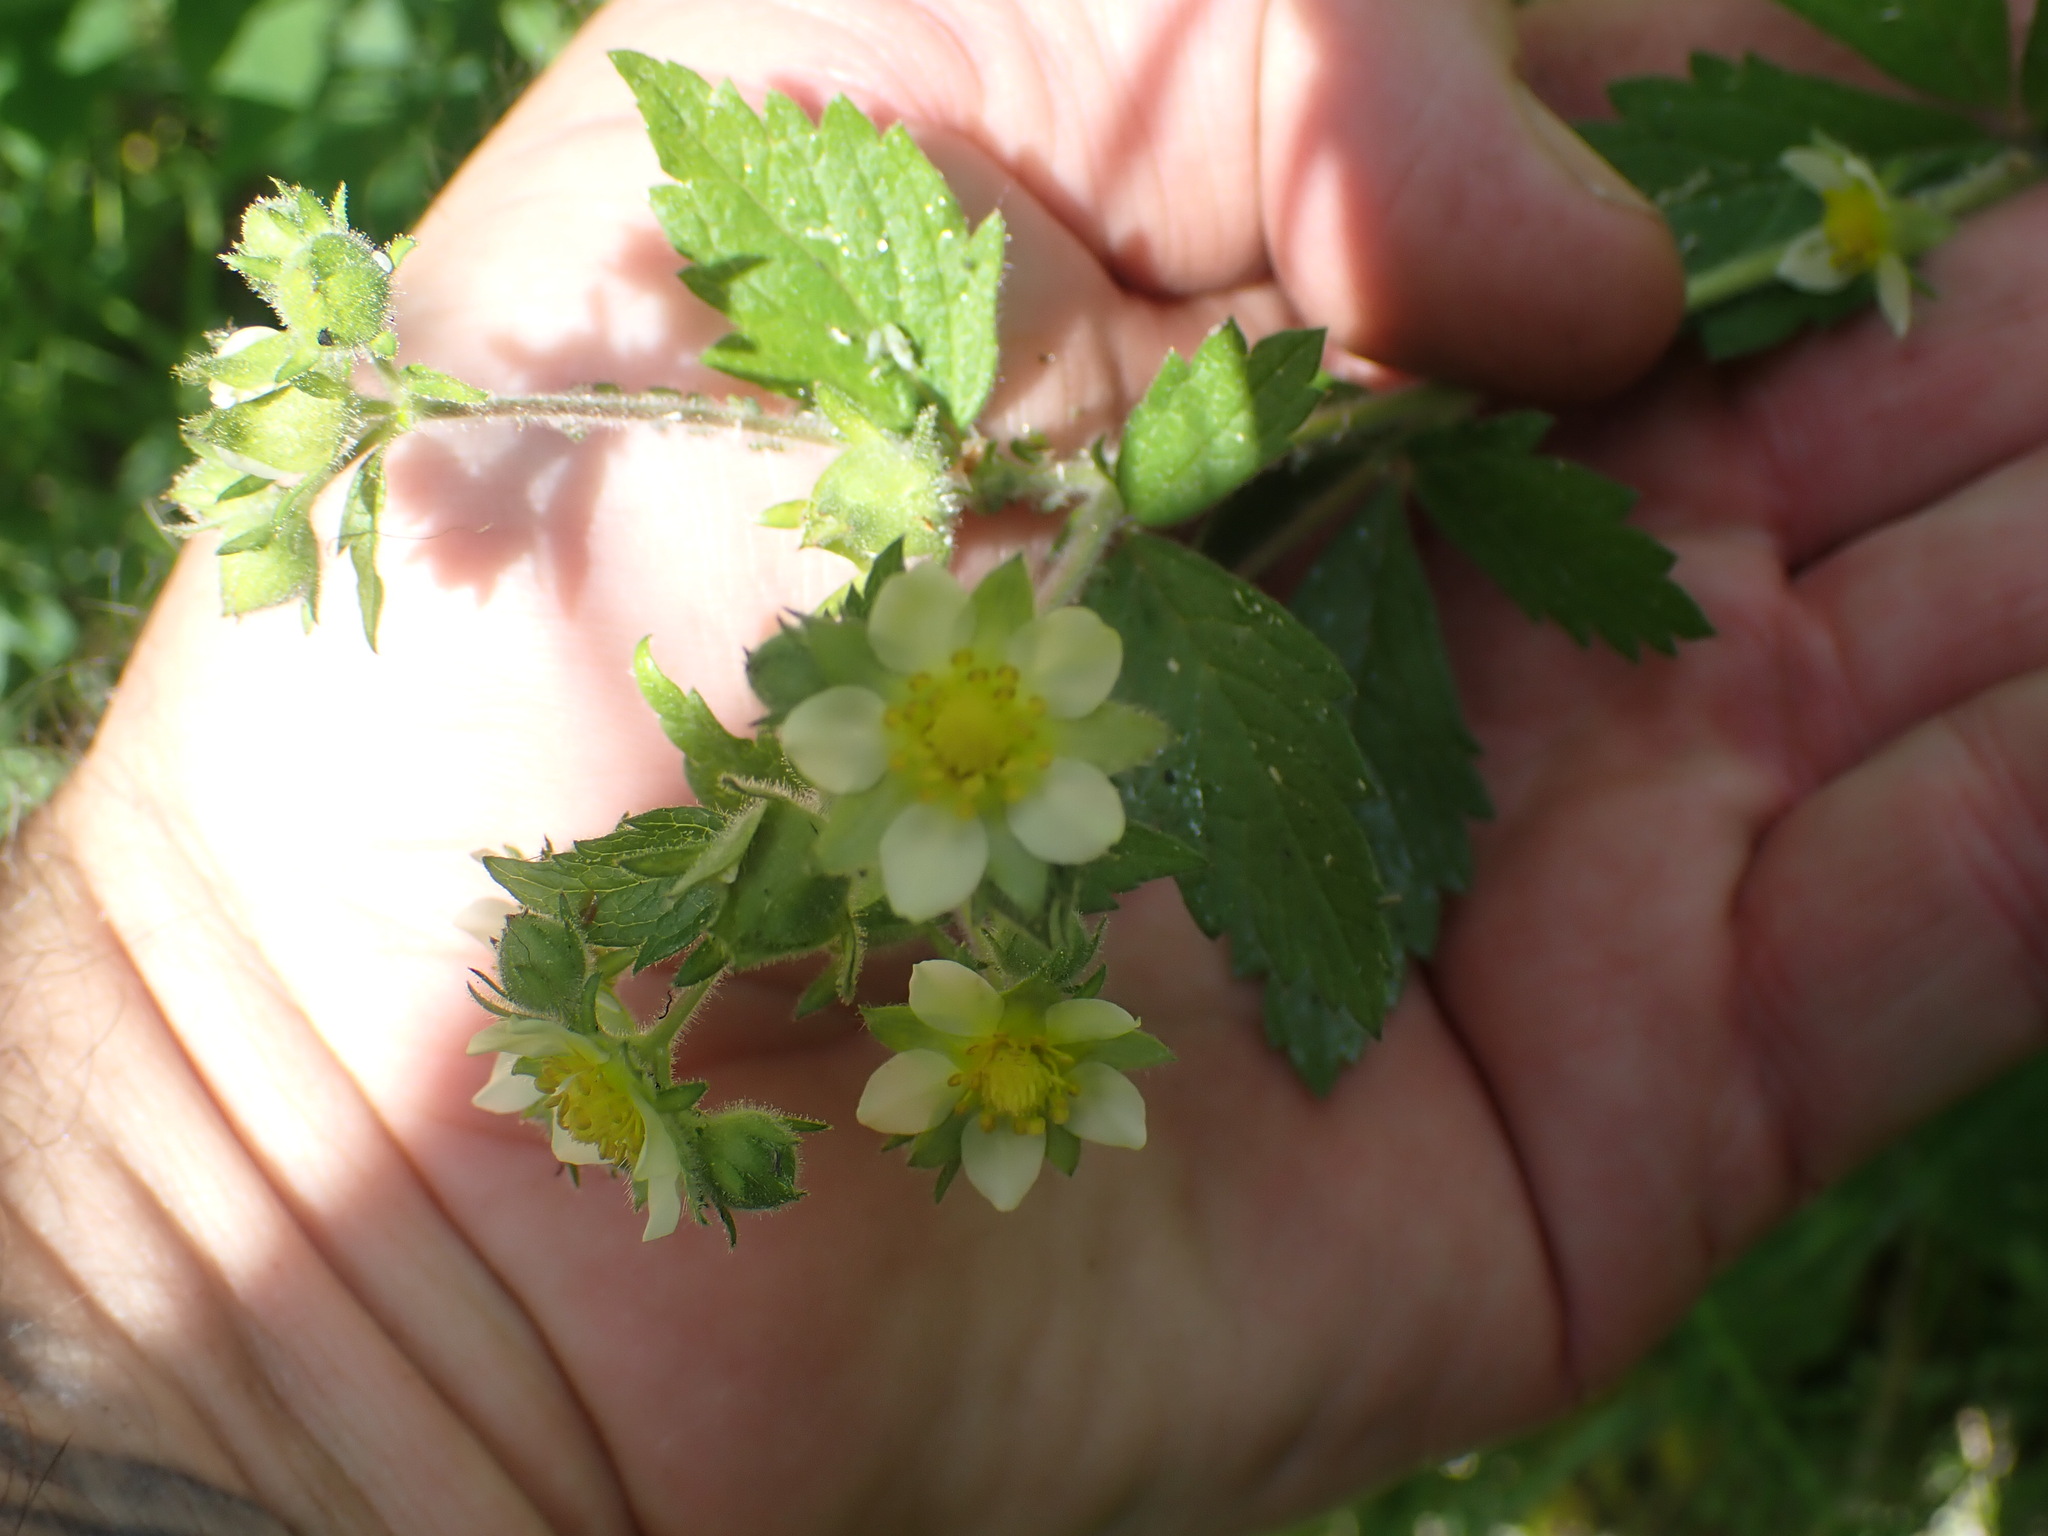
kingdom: Plantae
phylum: Tracheophyta
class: Magnoliopsida
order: Rosales
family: Rosaceae
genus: Drymocallis
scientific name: Drymocallis glandulosa
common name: Sticky cinquefoil
